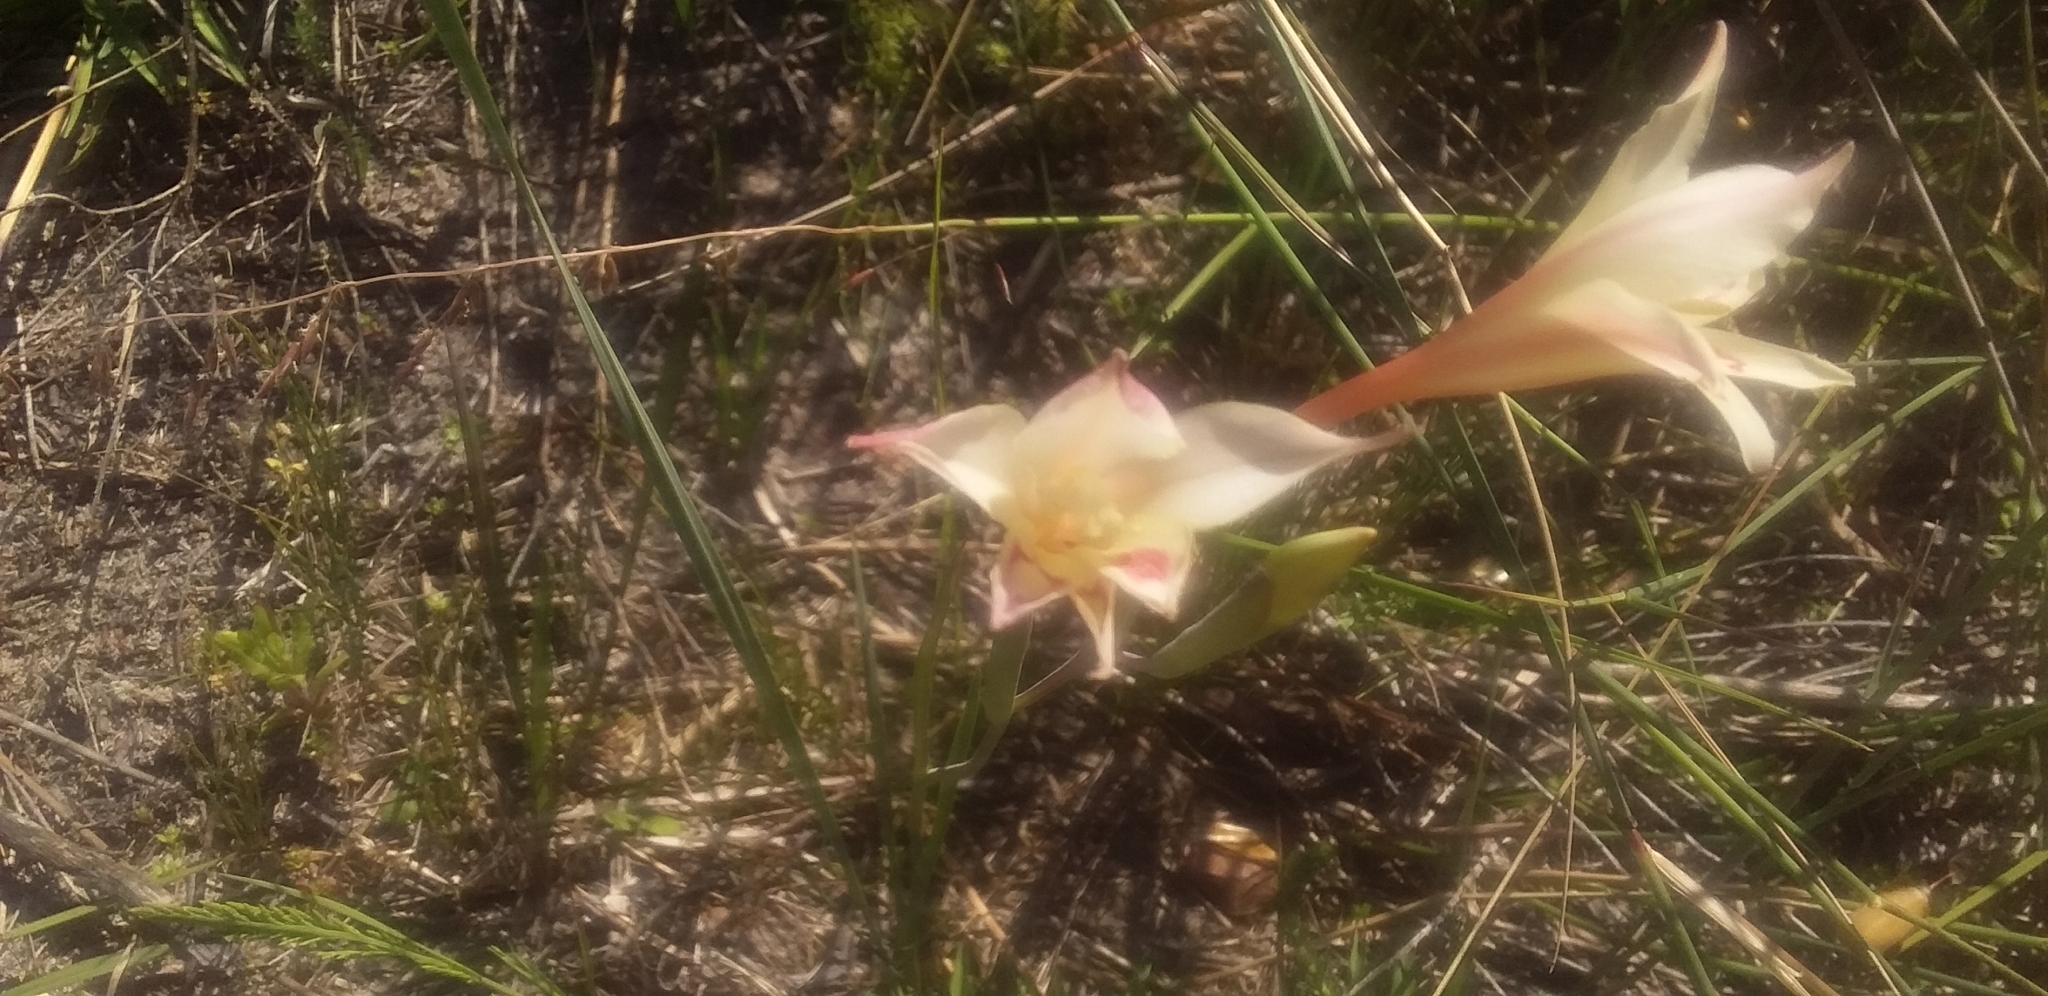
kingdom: Plantae
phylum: Tracheophyta
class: Liliopsida
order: Asparagales
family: Iridaceae
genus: Gladiolus
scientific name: Gladiolus angustus
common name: Painted-lady
